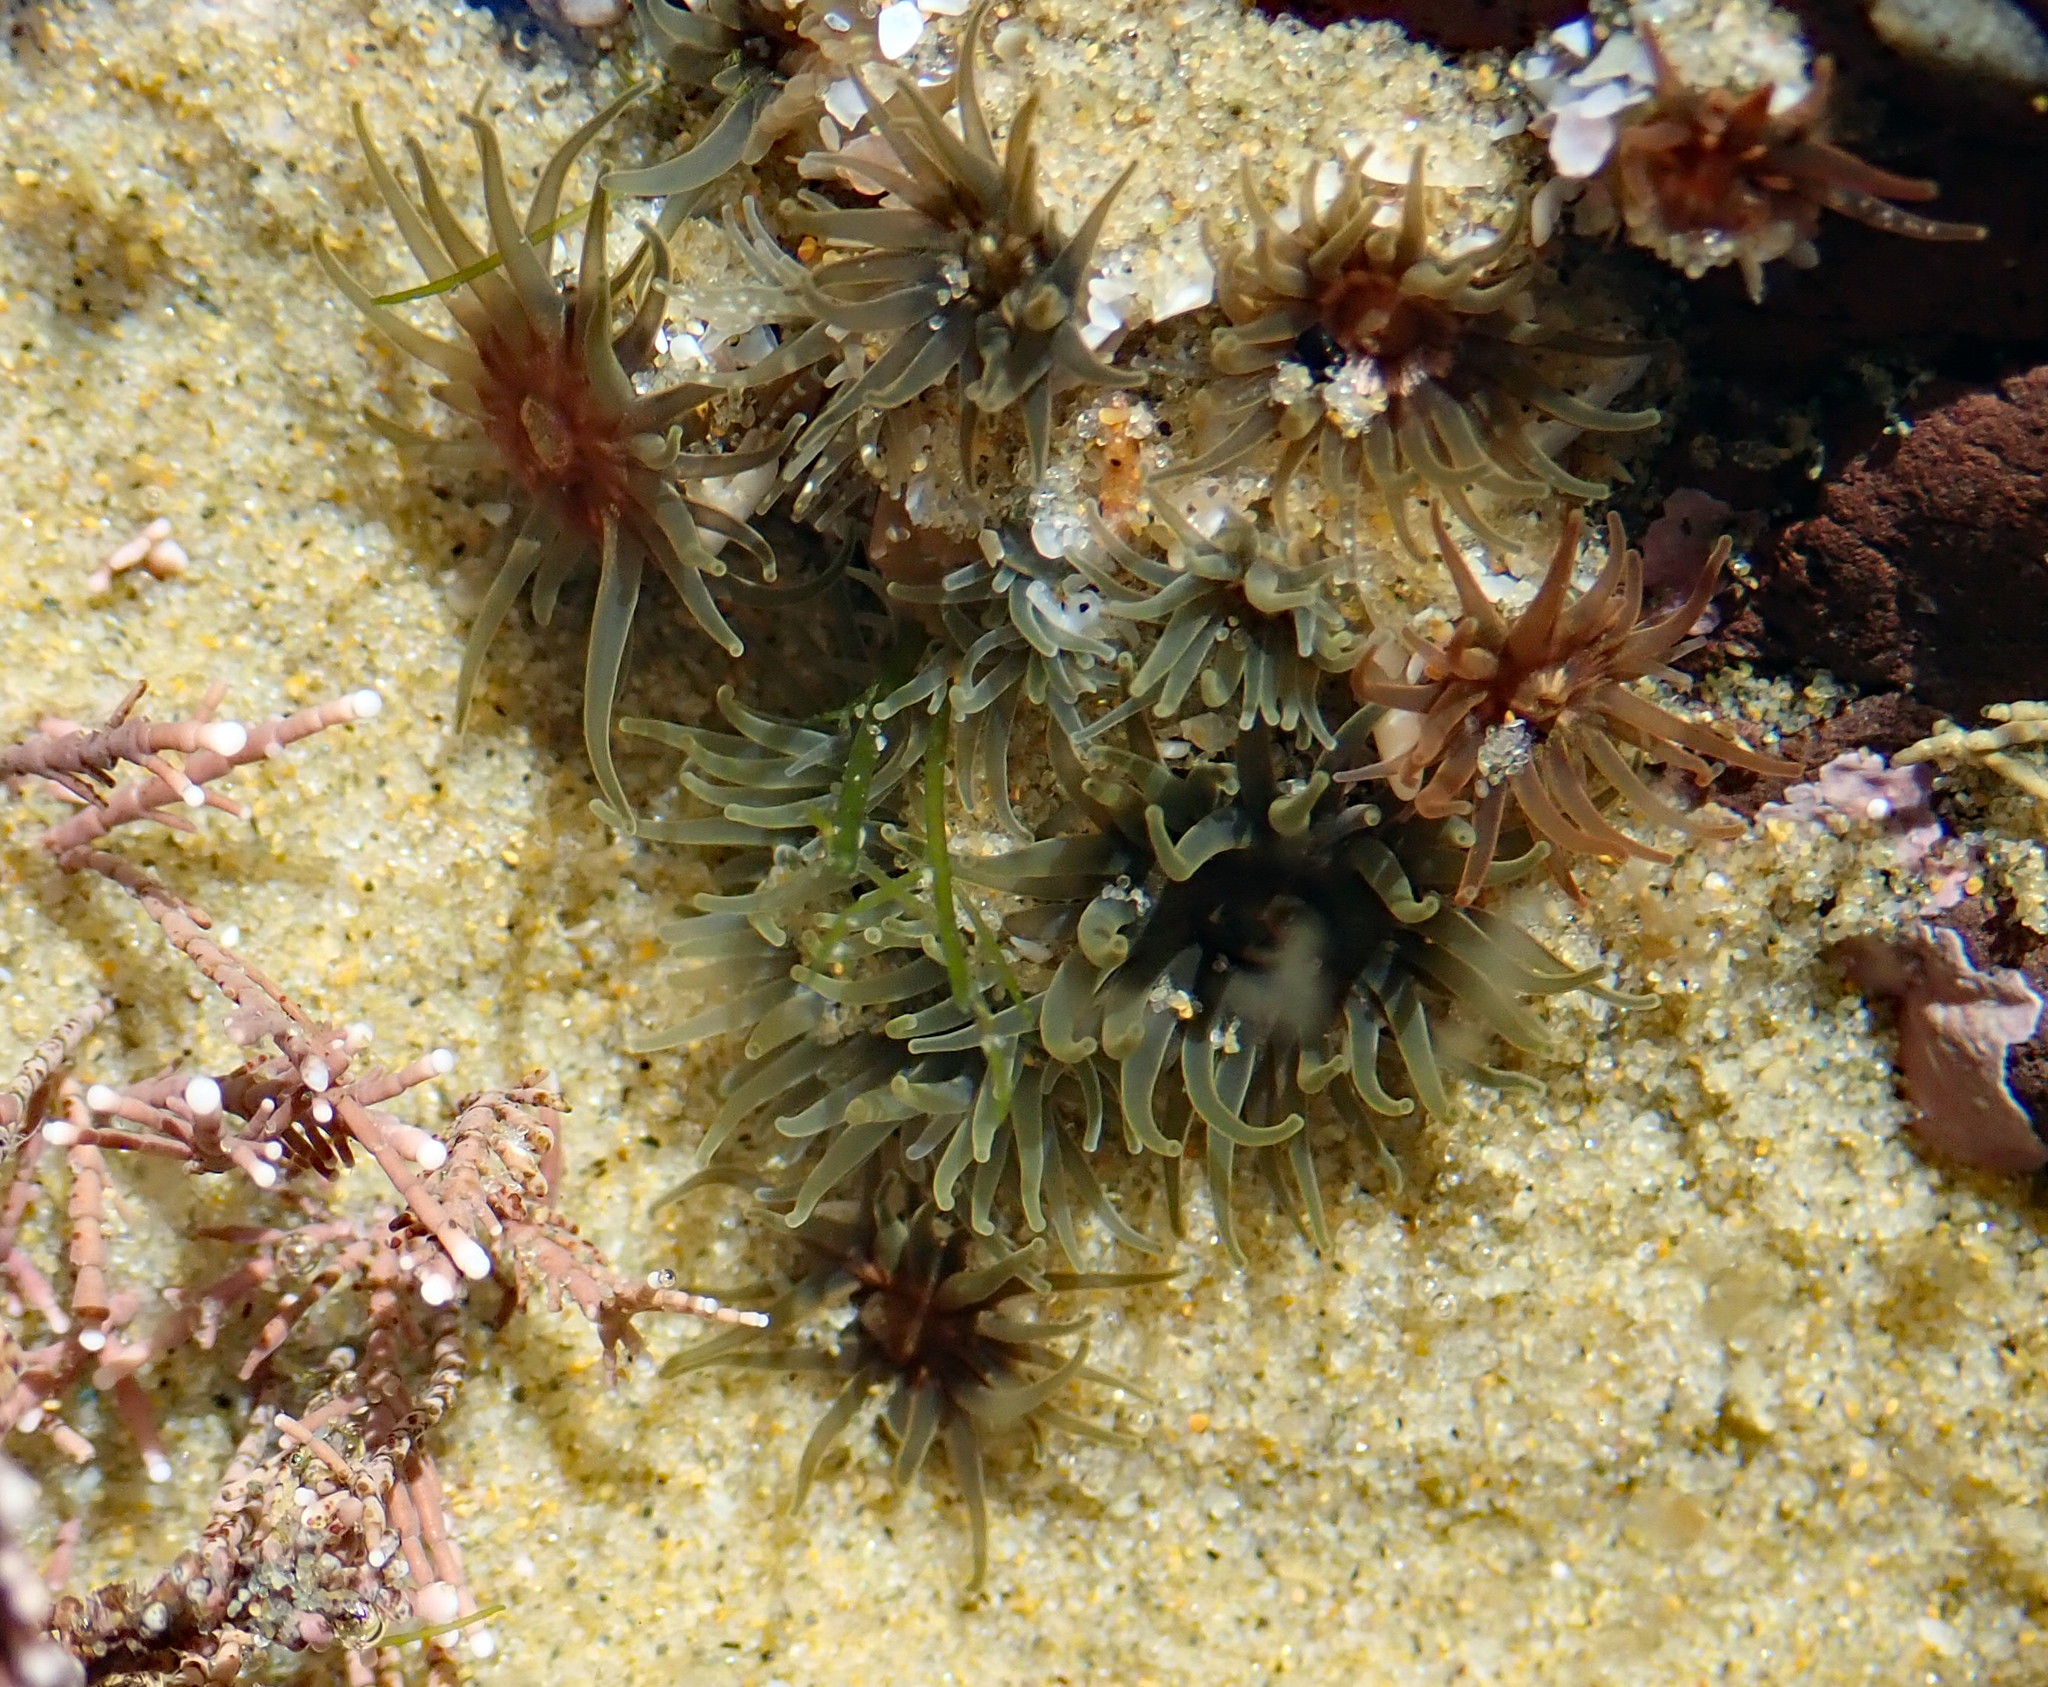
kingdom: Animalia
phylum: Cnidaria
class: Anthozoa
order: Actiniaria
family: Actiniidae
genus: Isactinia
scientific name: Isactinia olivacea
